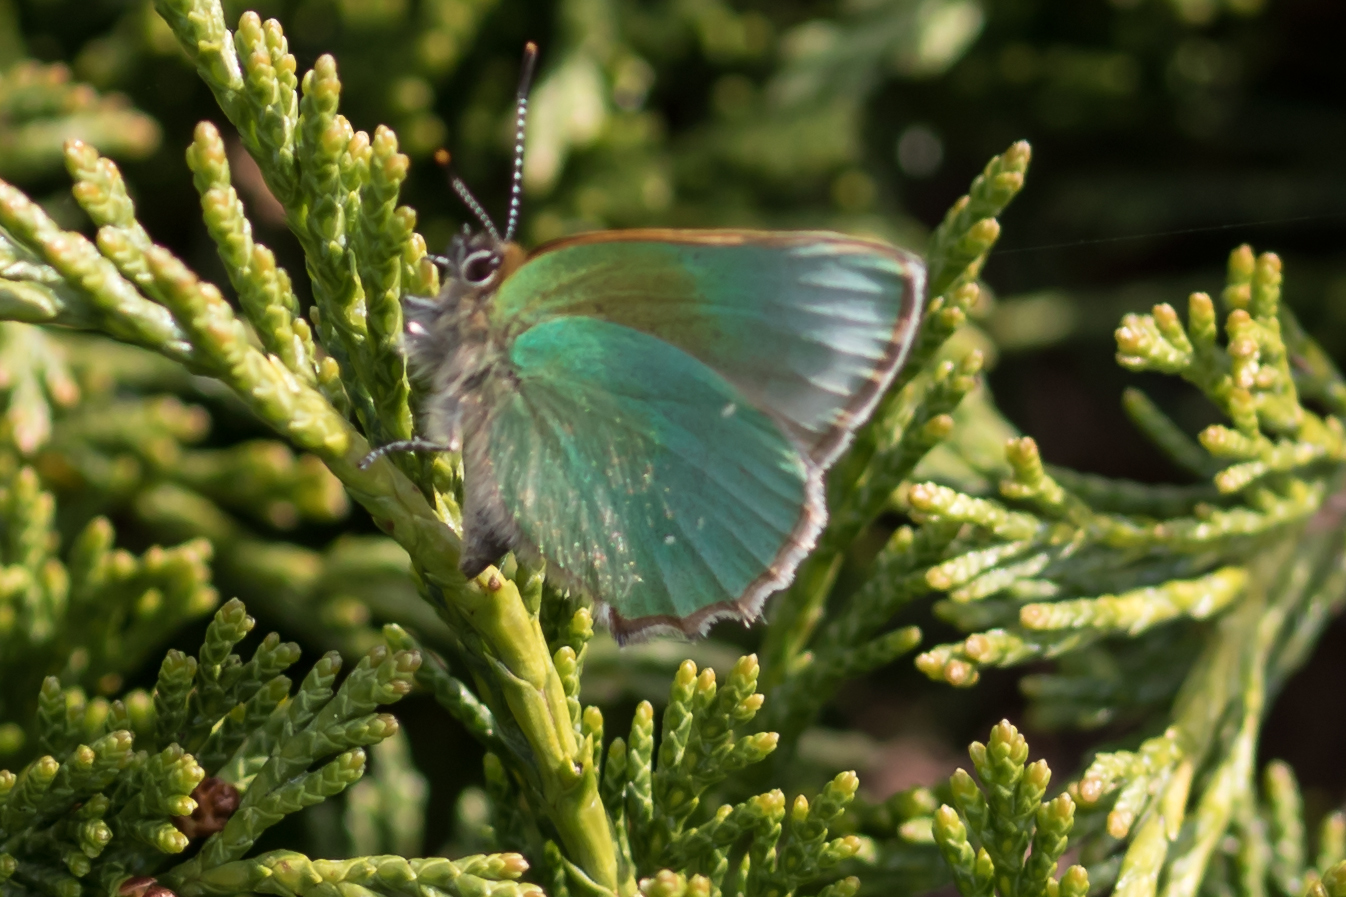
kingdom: Animalia
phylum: Arthropoda
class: Insecta
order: Lepidoptera
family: Lycaenidae
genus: Callophrys
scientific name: Callophrys rubi
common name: Green hairstreak
